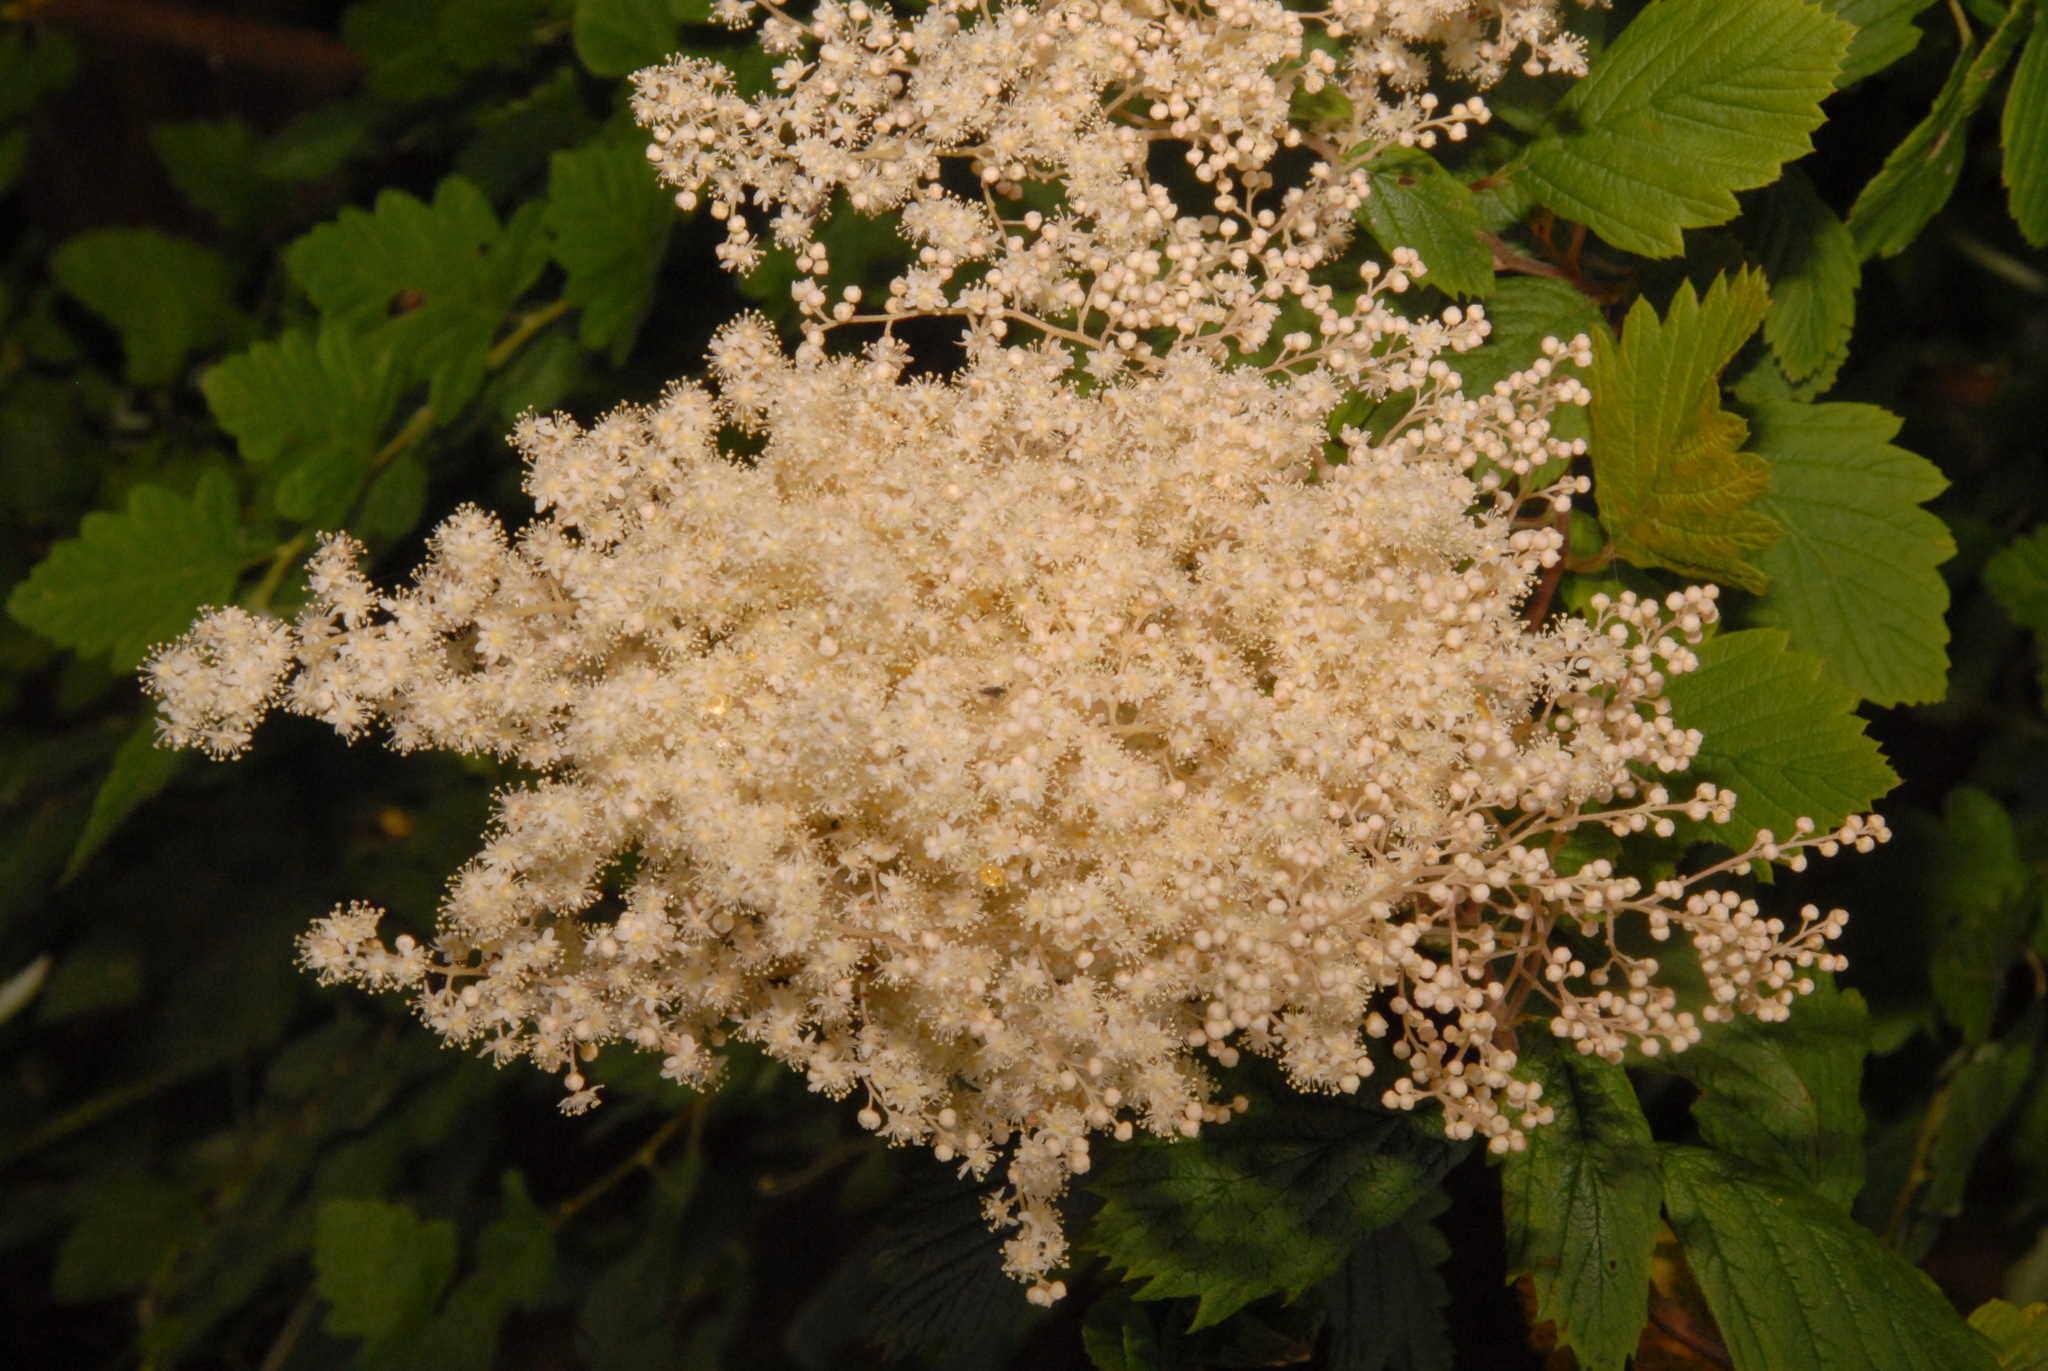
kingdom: Plantae
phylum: Tracheophyta
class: Magnoliopsida
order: Rosales
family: Rosaceae
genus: Holodiscus
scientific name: Holodiscus discolor
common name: Oceanspray
